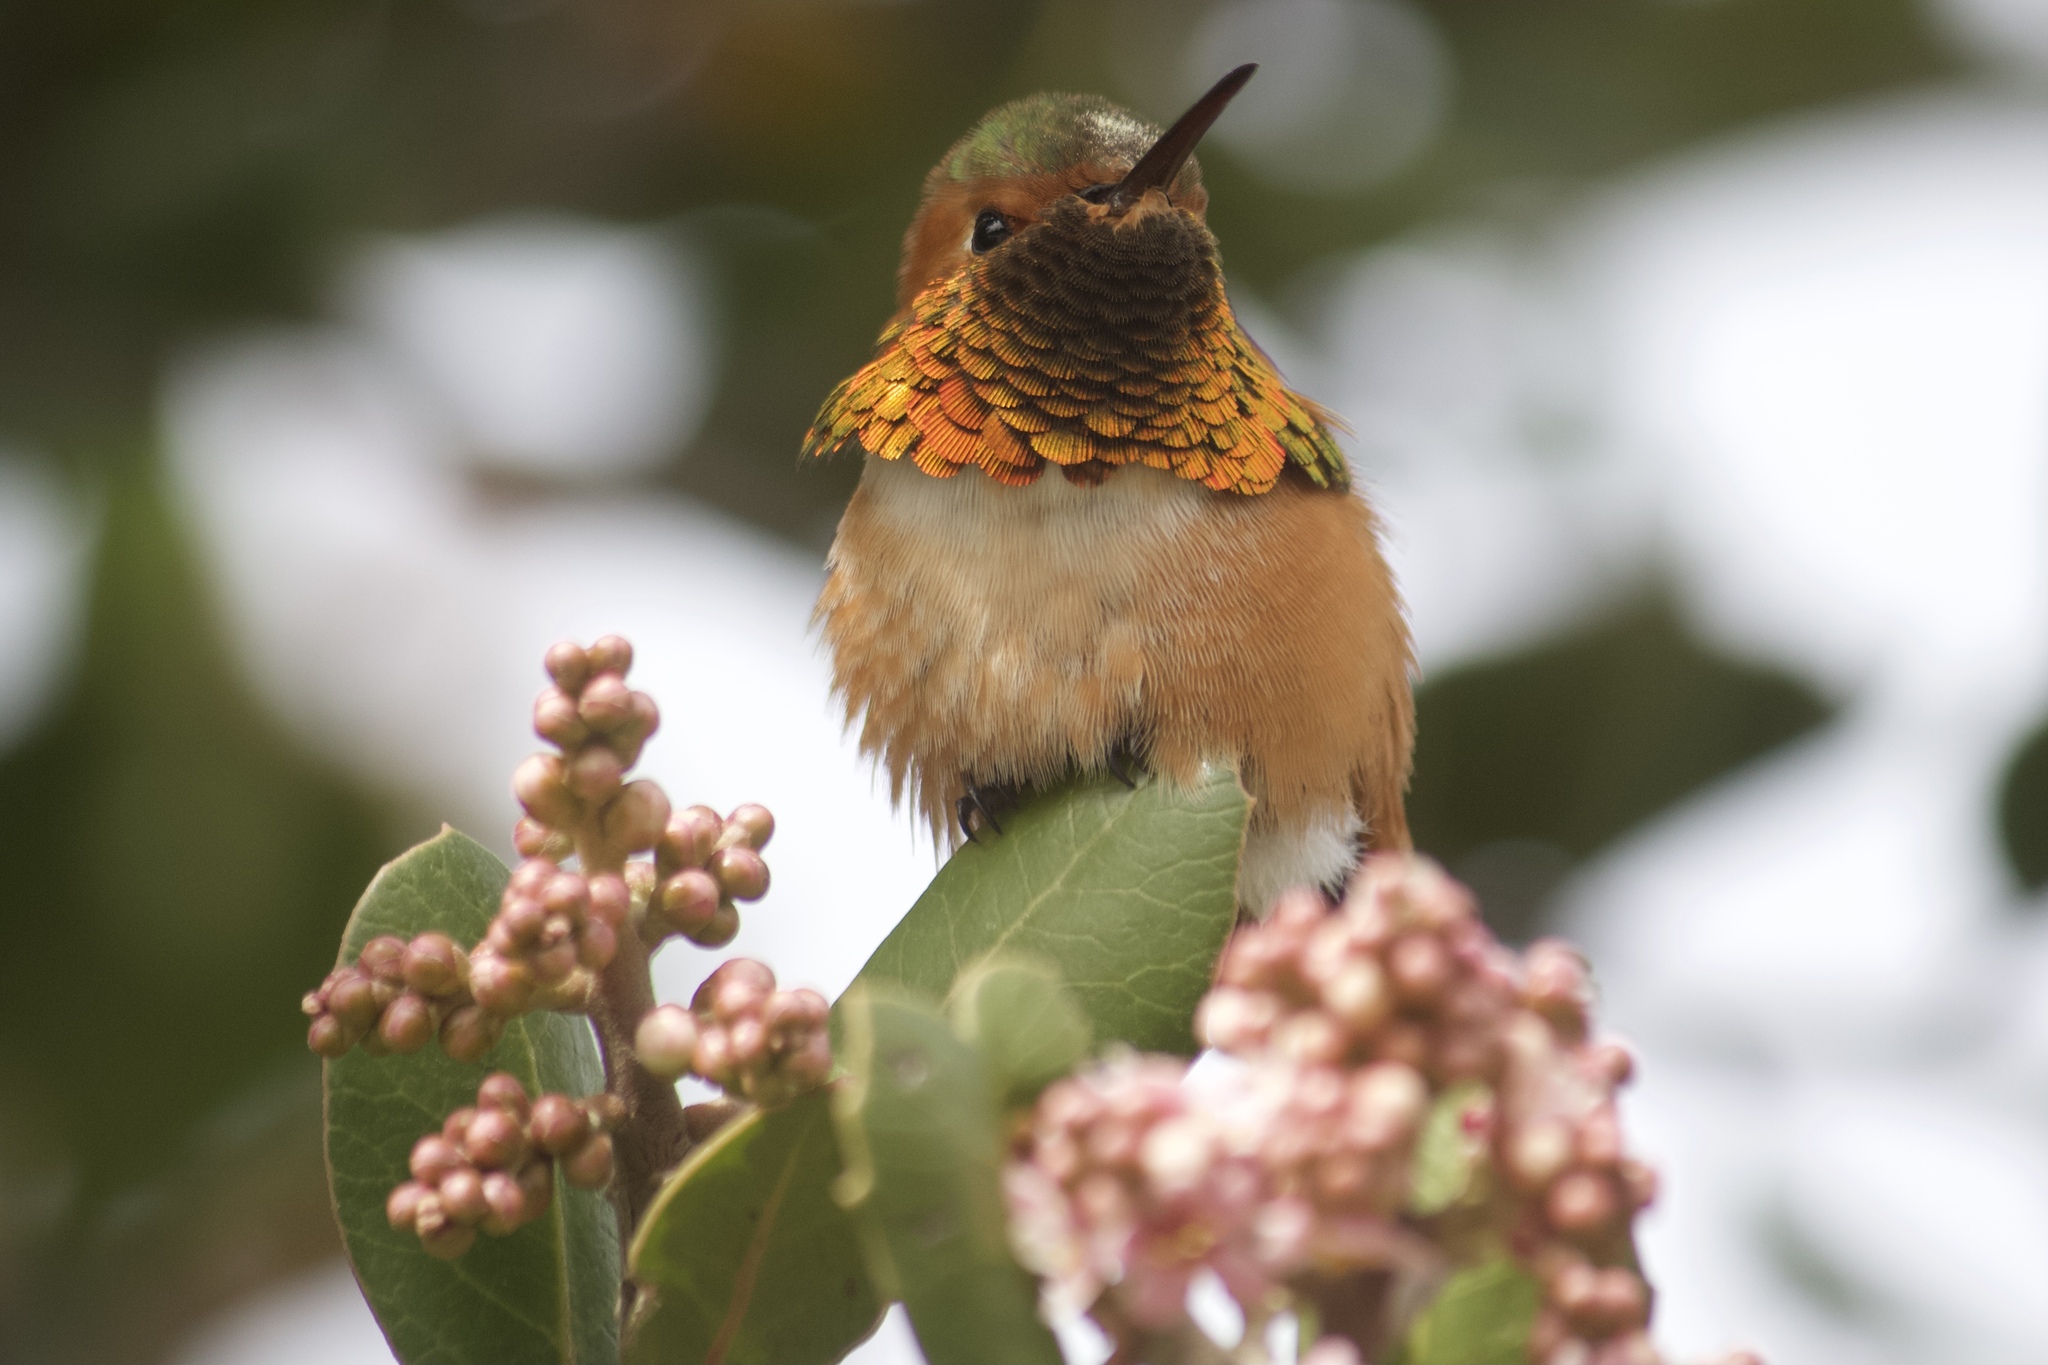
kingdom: Animalia
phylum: Chordata
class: Aves
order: Apodiformes
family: Trochilidae
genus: Selasphorus
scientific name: Selasphorus sasin
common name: Allen's hummingbird
